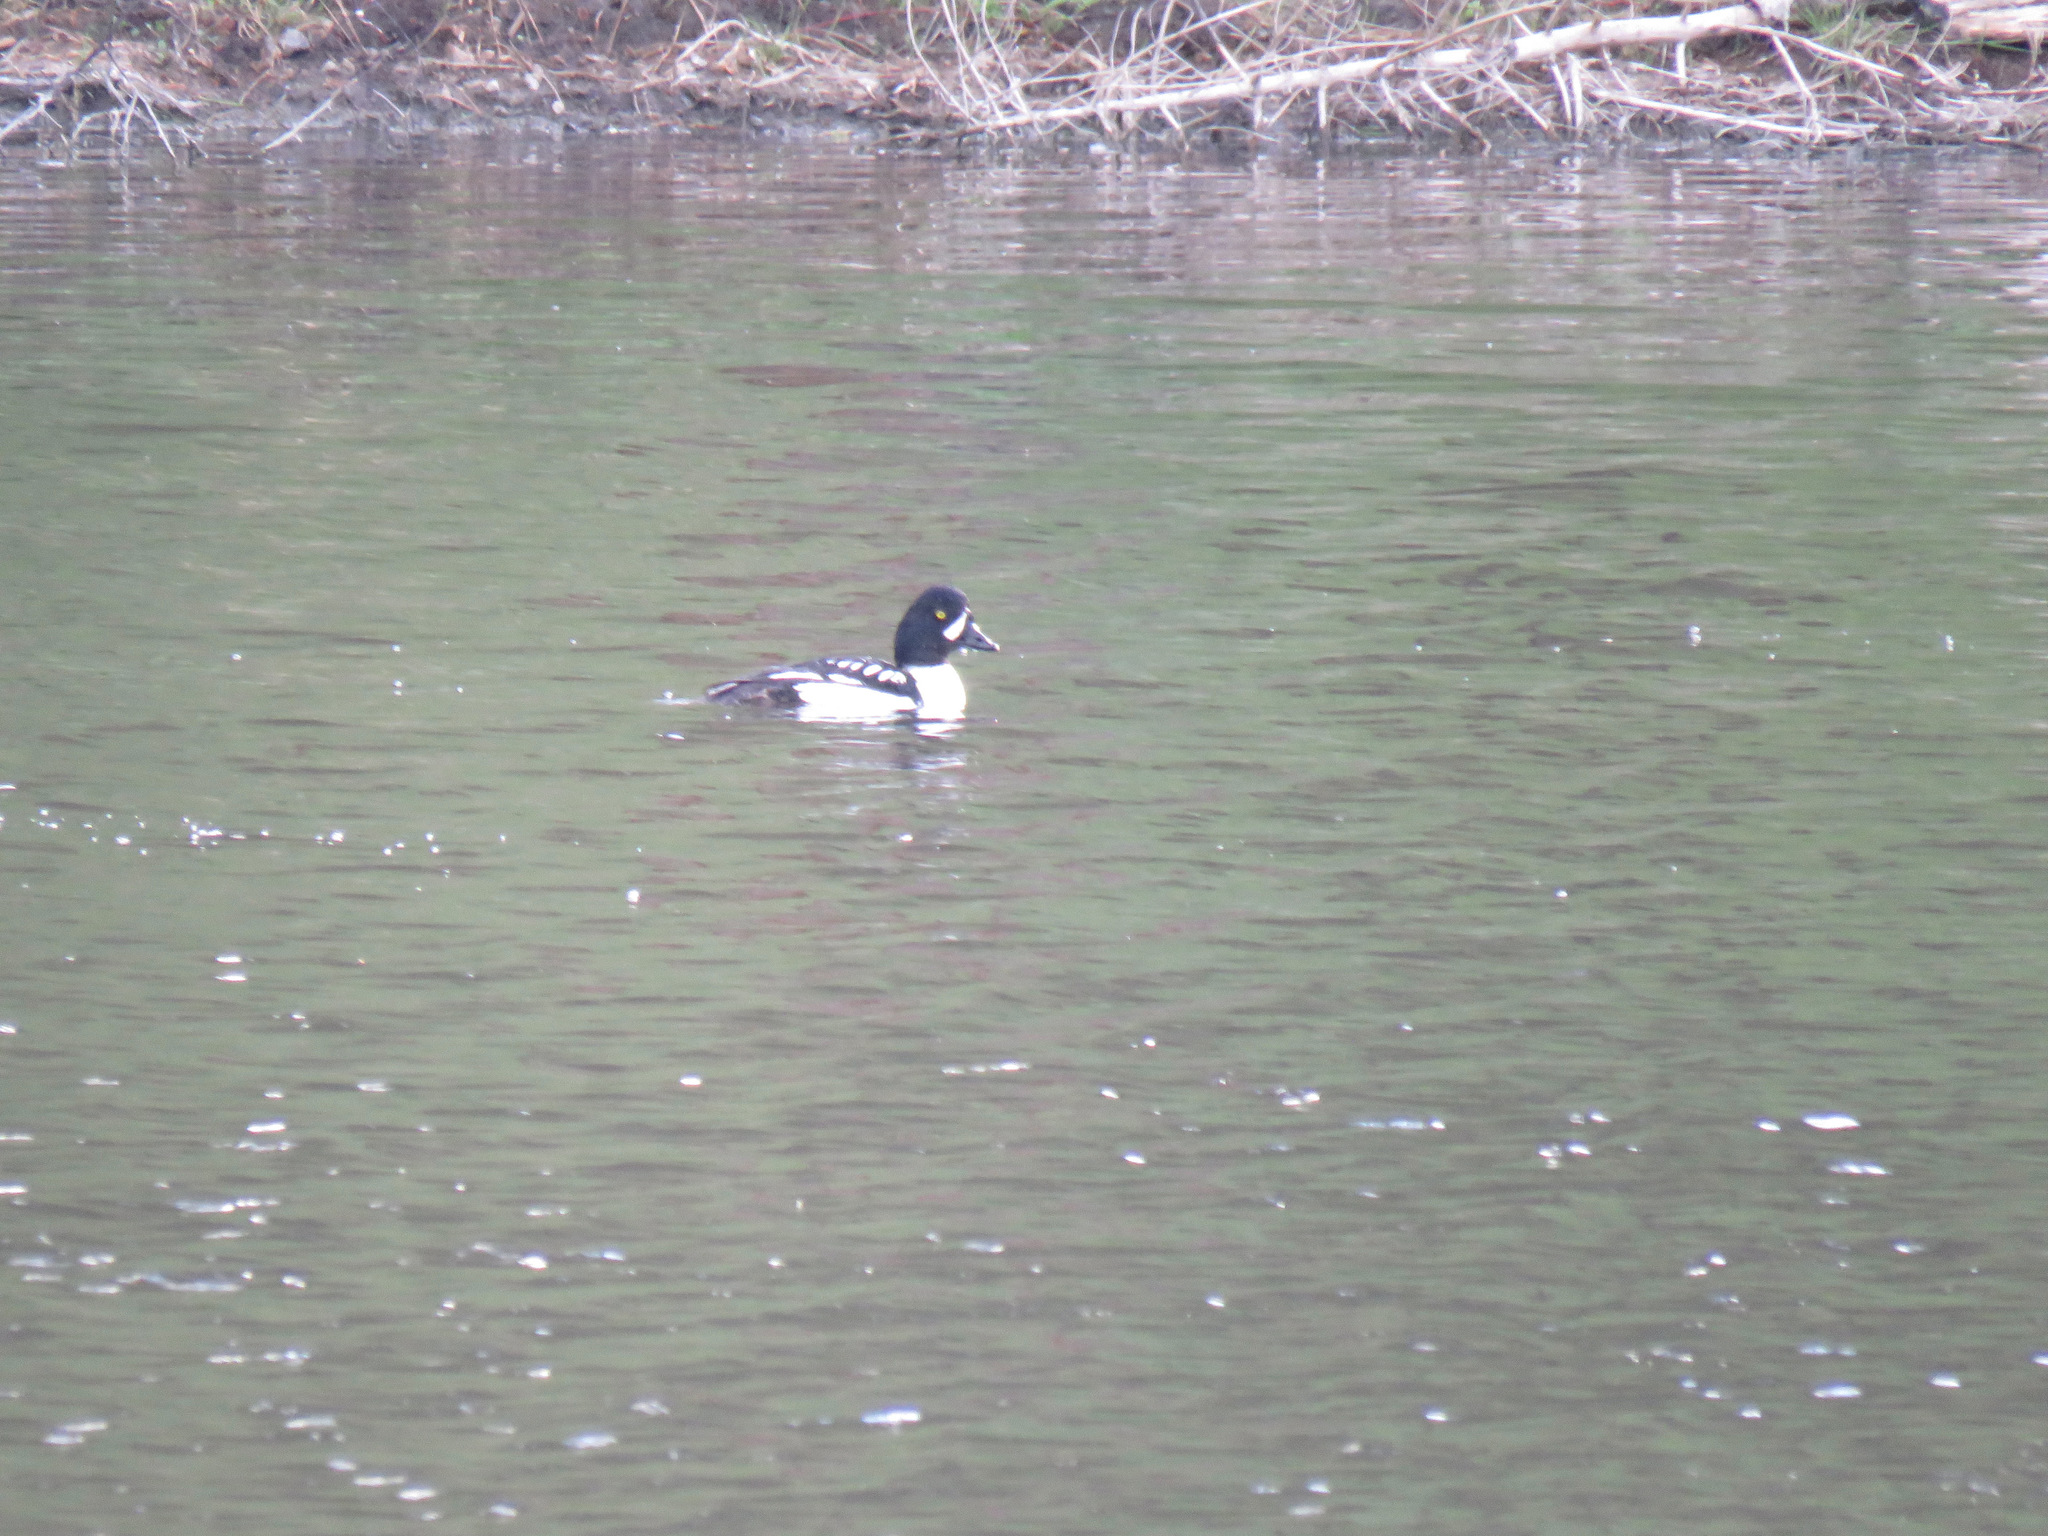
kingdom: Animalia
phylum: Chordata
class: Aves
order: Anseriformes
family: Anatidae
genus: Bucephala
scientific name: Bucephala islandica
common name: Barrow's goldeneye
